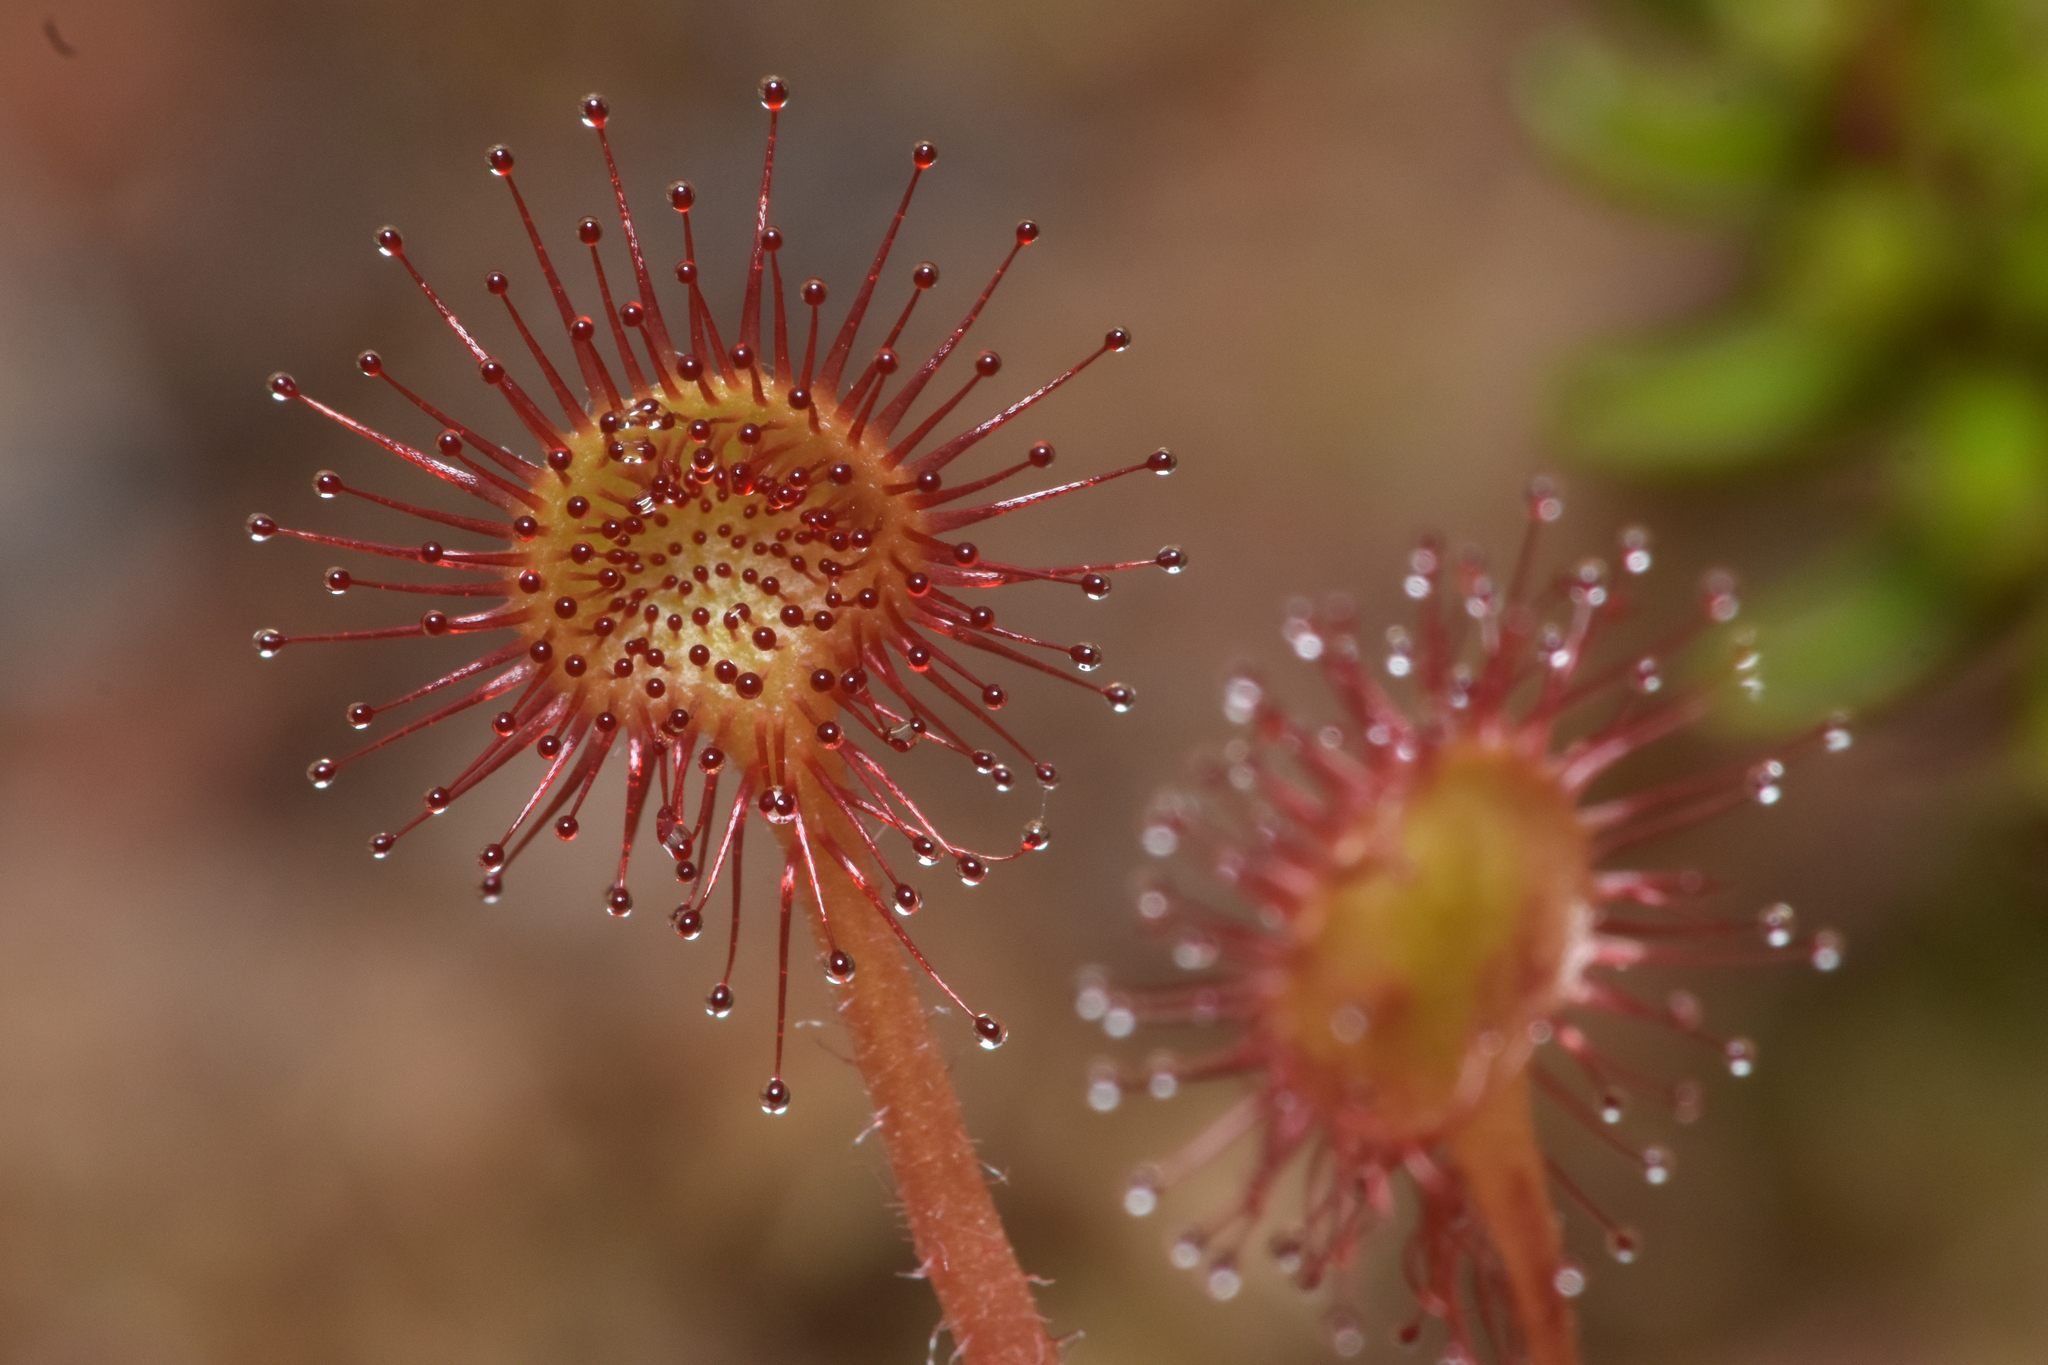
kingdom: Plantae
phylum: Tracheophyta
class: Magnoliopsida
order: Caryophyllales
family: Droseraceae
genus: Drosera
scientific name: Drosera rotundifolia
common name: Round-leaved sundew
